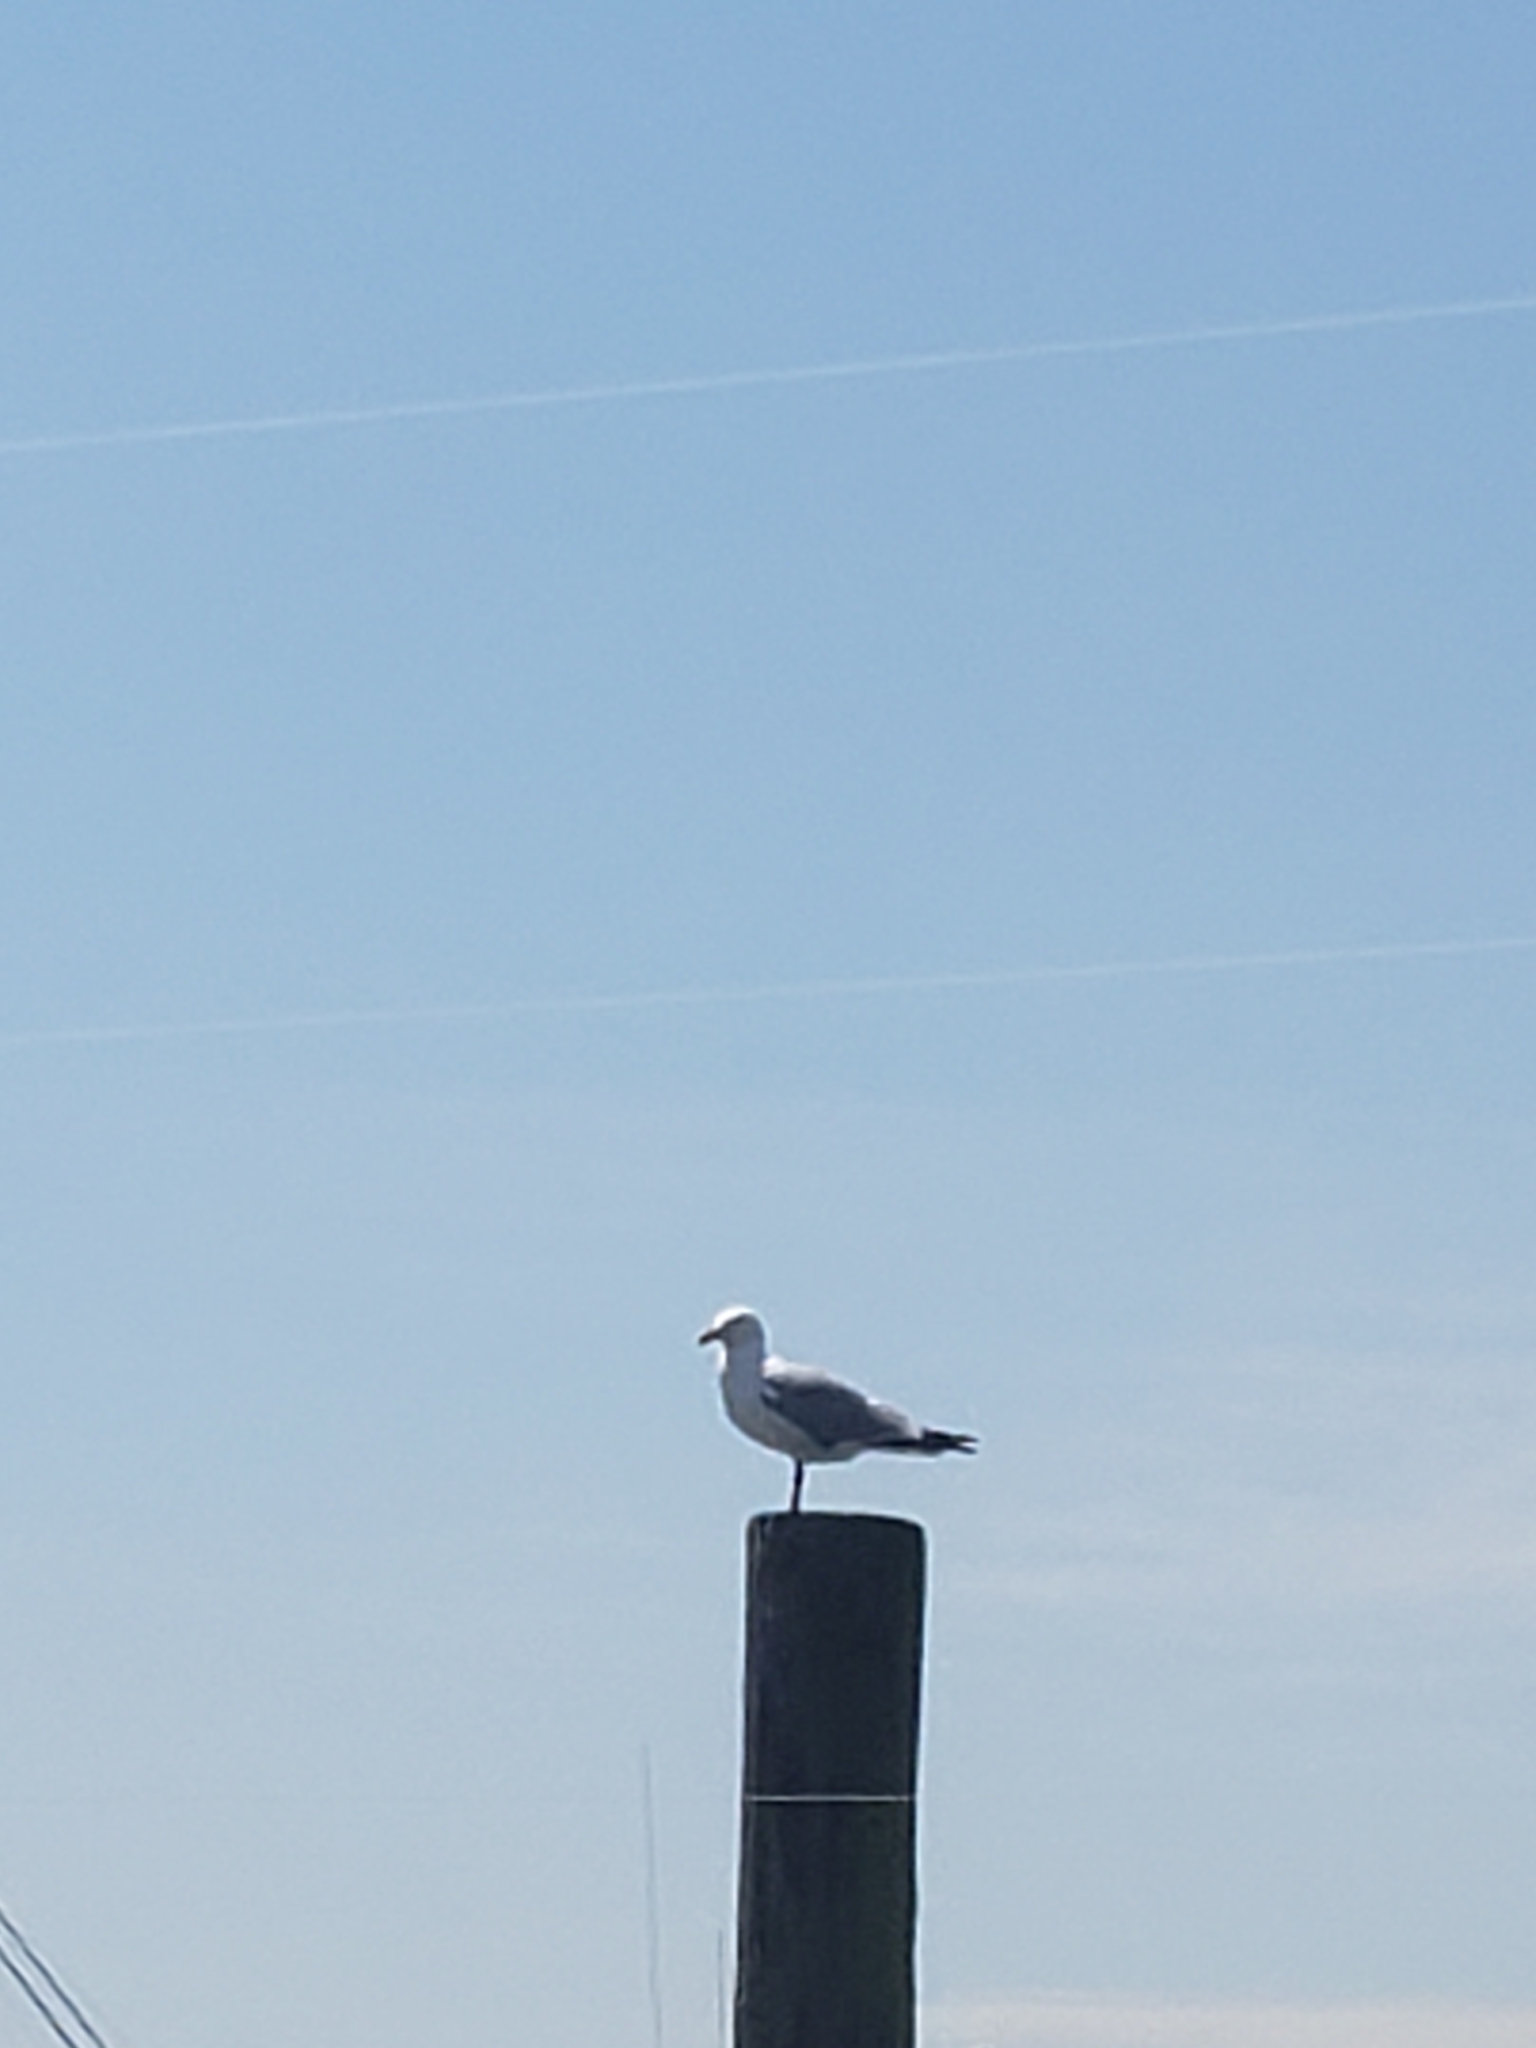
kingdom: Animalia
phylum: Chordata
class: Aves
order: Charadriiformes
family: Laridae
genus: Larus
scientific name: Larus argentatus
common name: Herring gull
